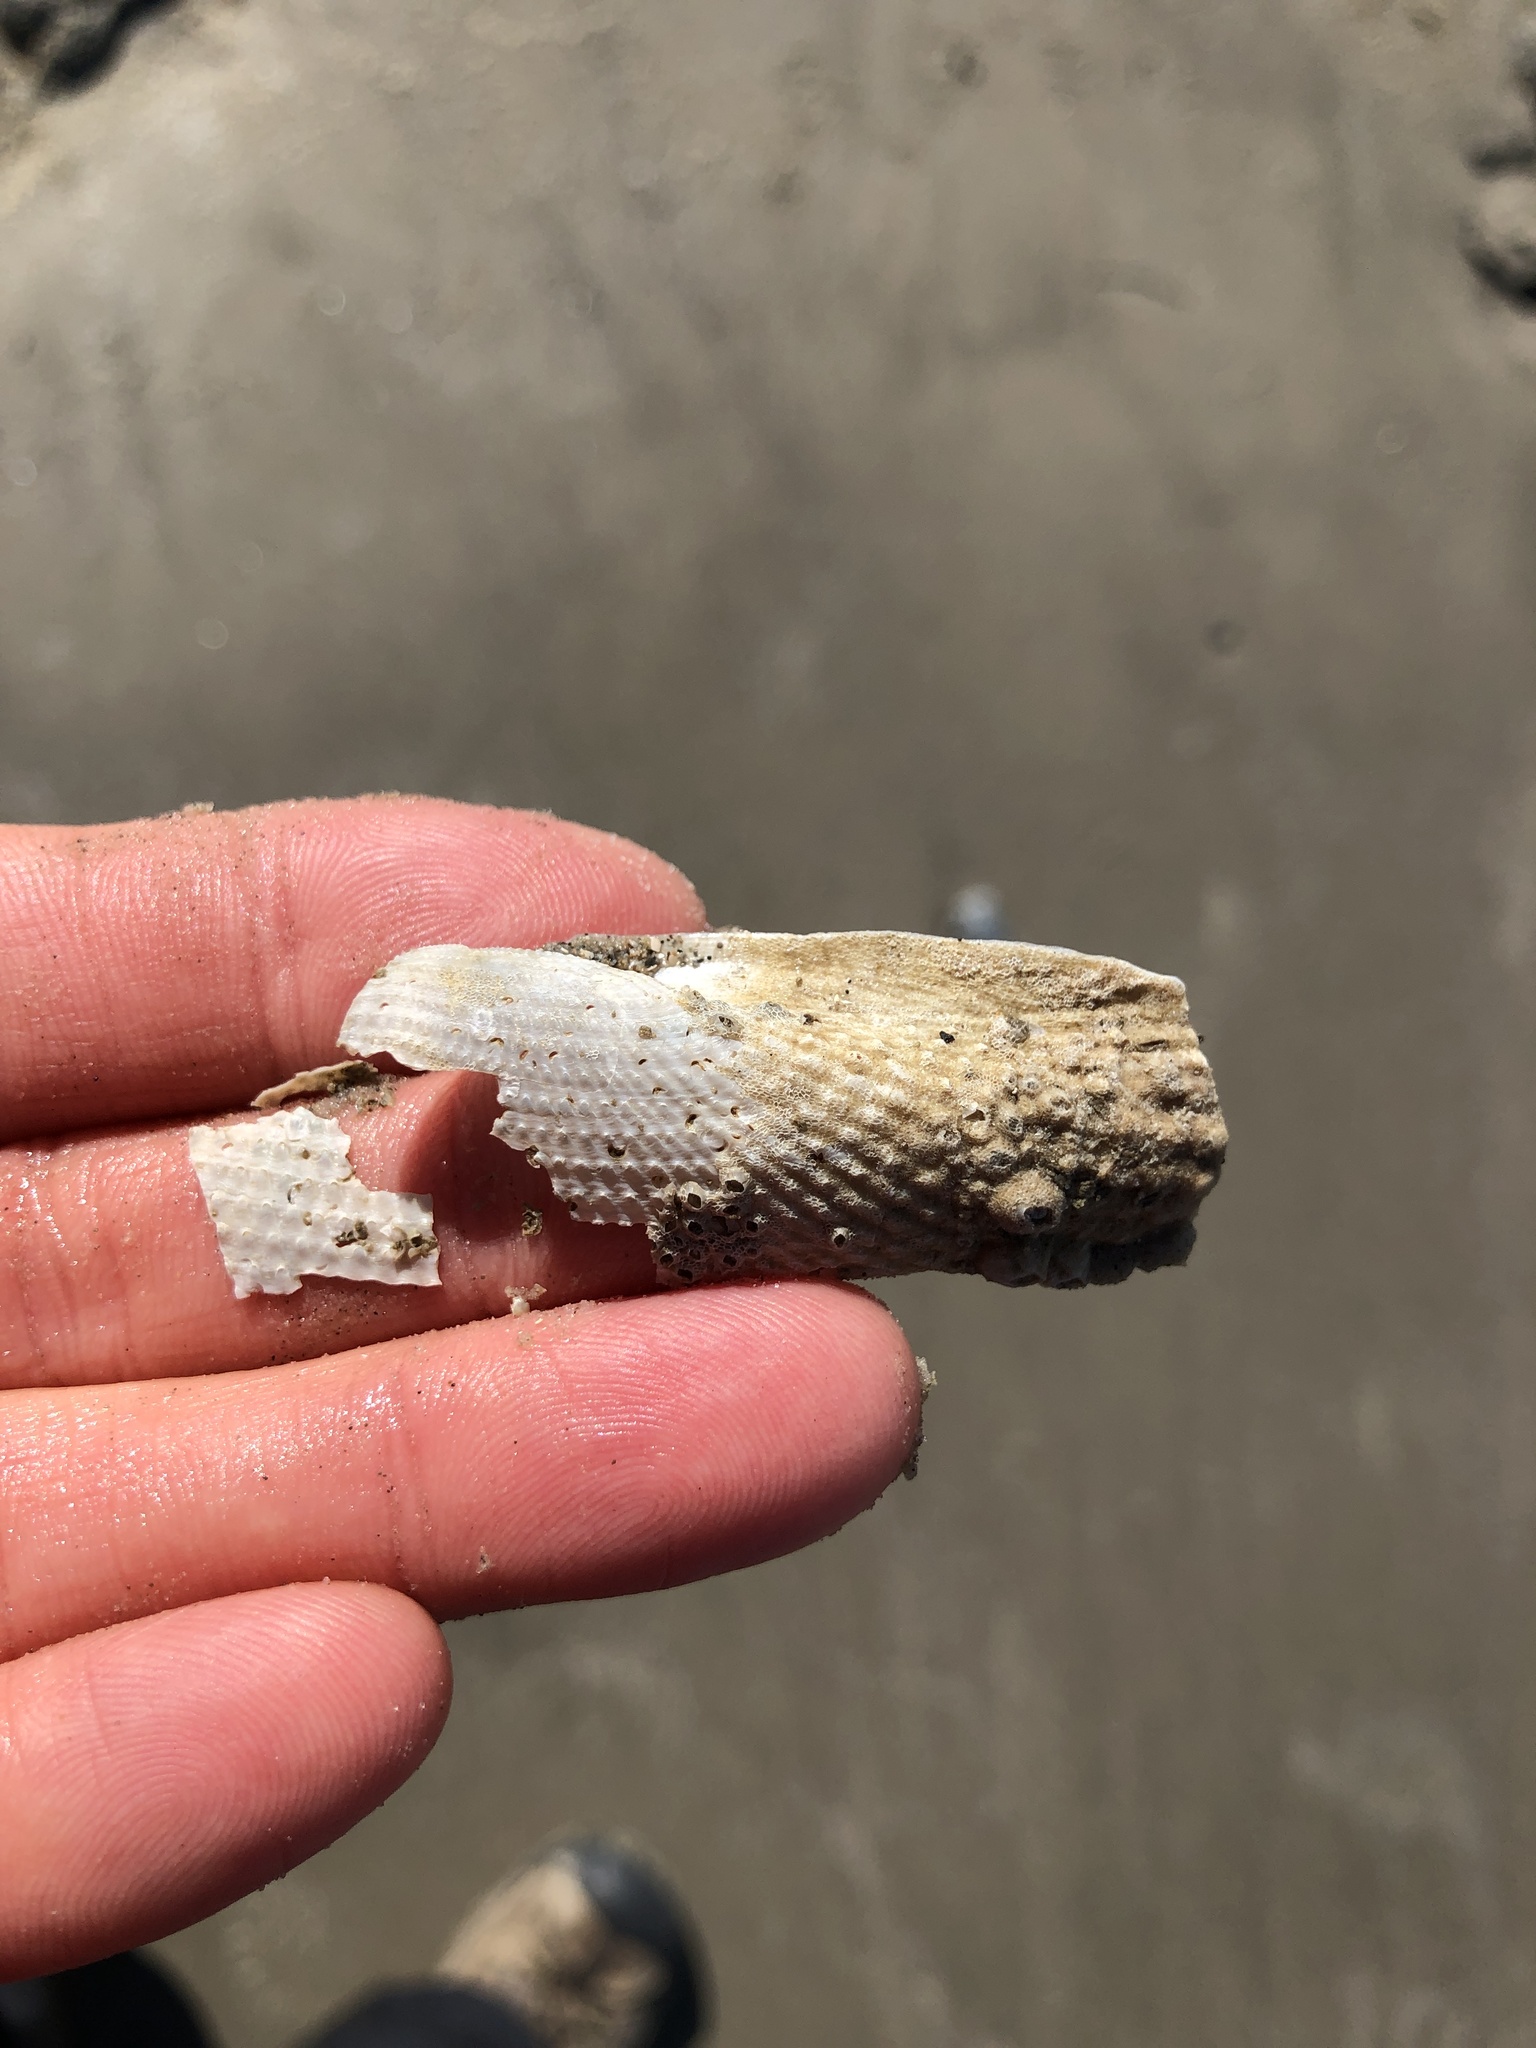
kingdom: Animalia
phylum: Mollusca
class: Bivalvia
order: Myida
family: Pholadidae
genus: Cyrtopleura
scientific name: Cyrtopleura costata
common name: Angel wing
